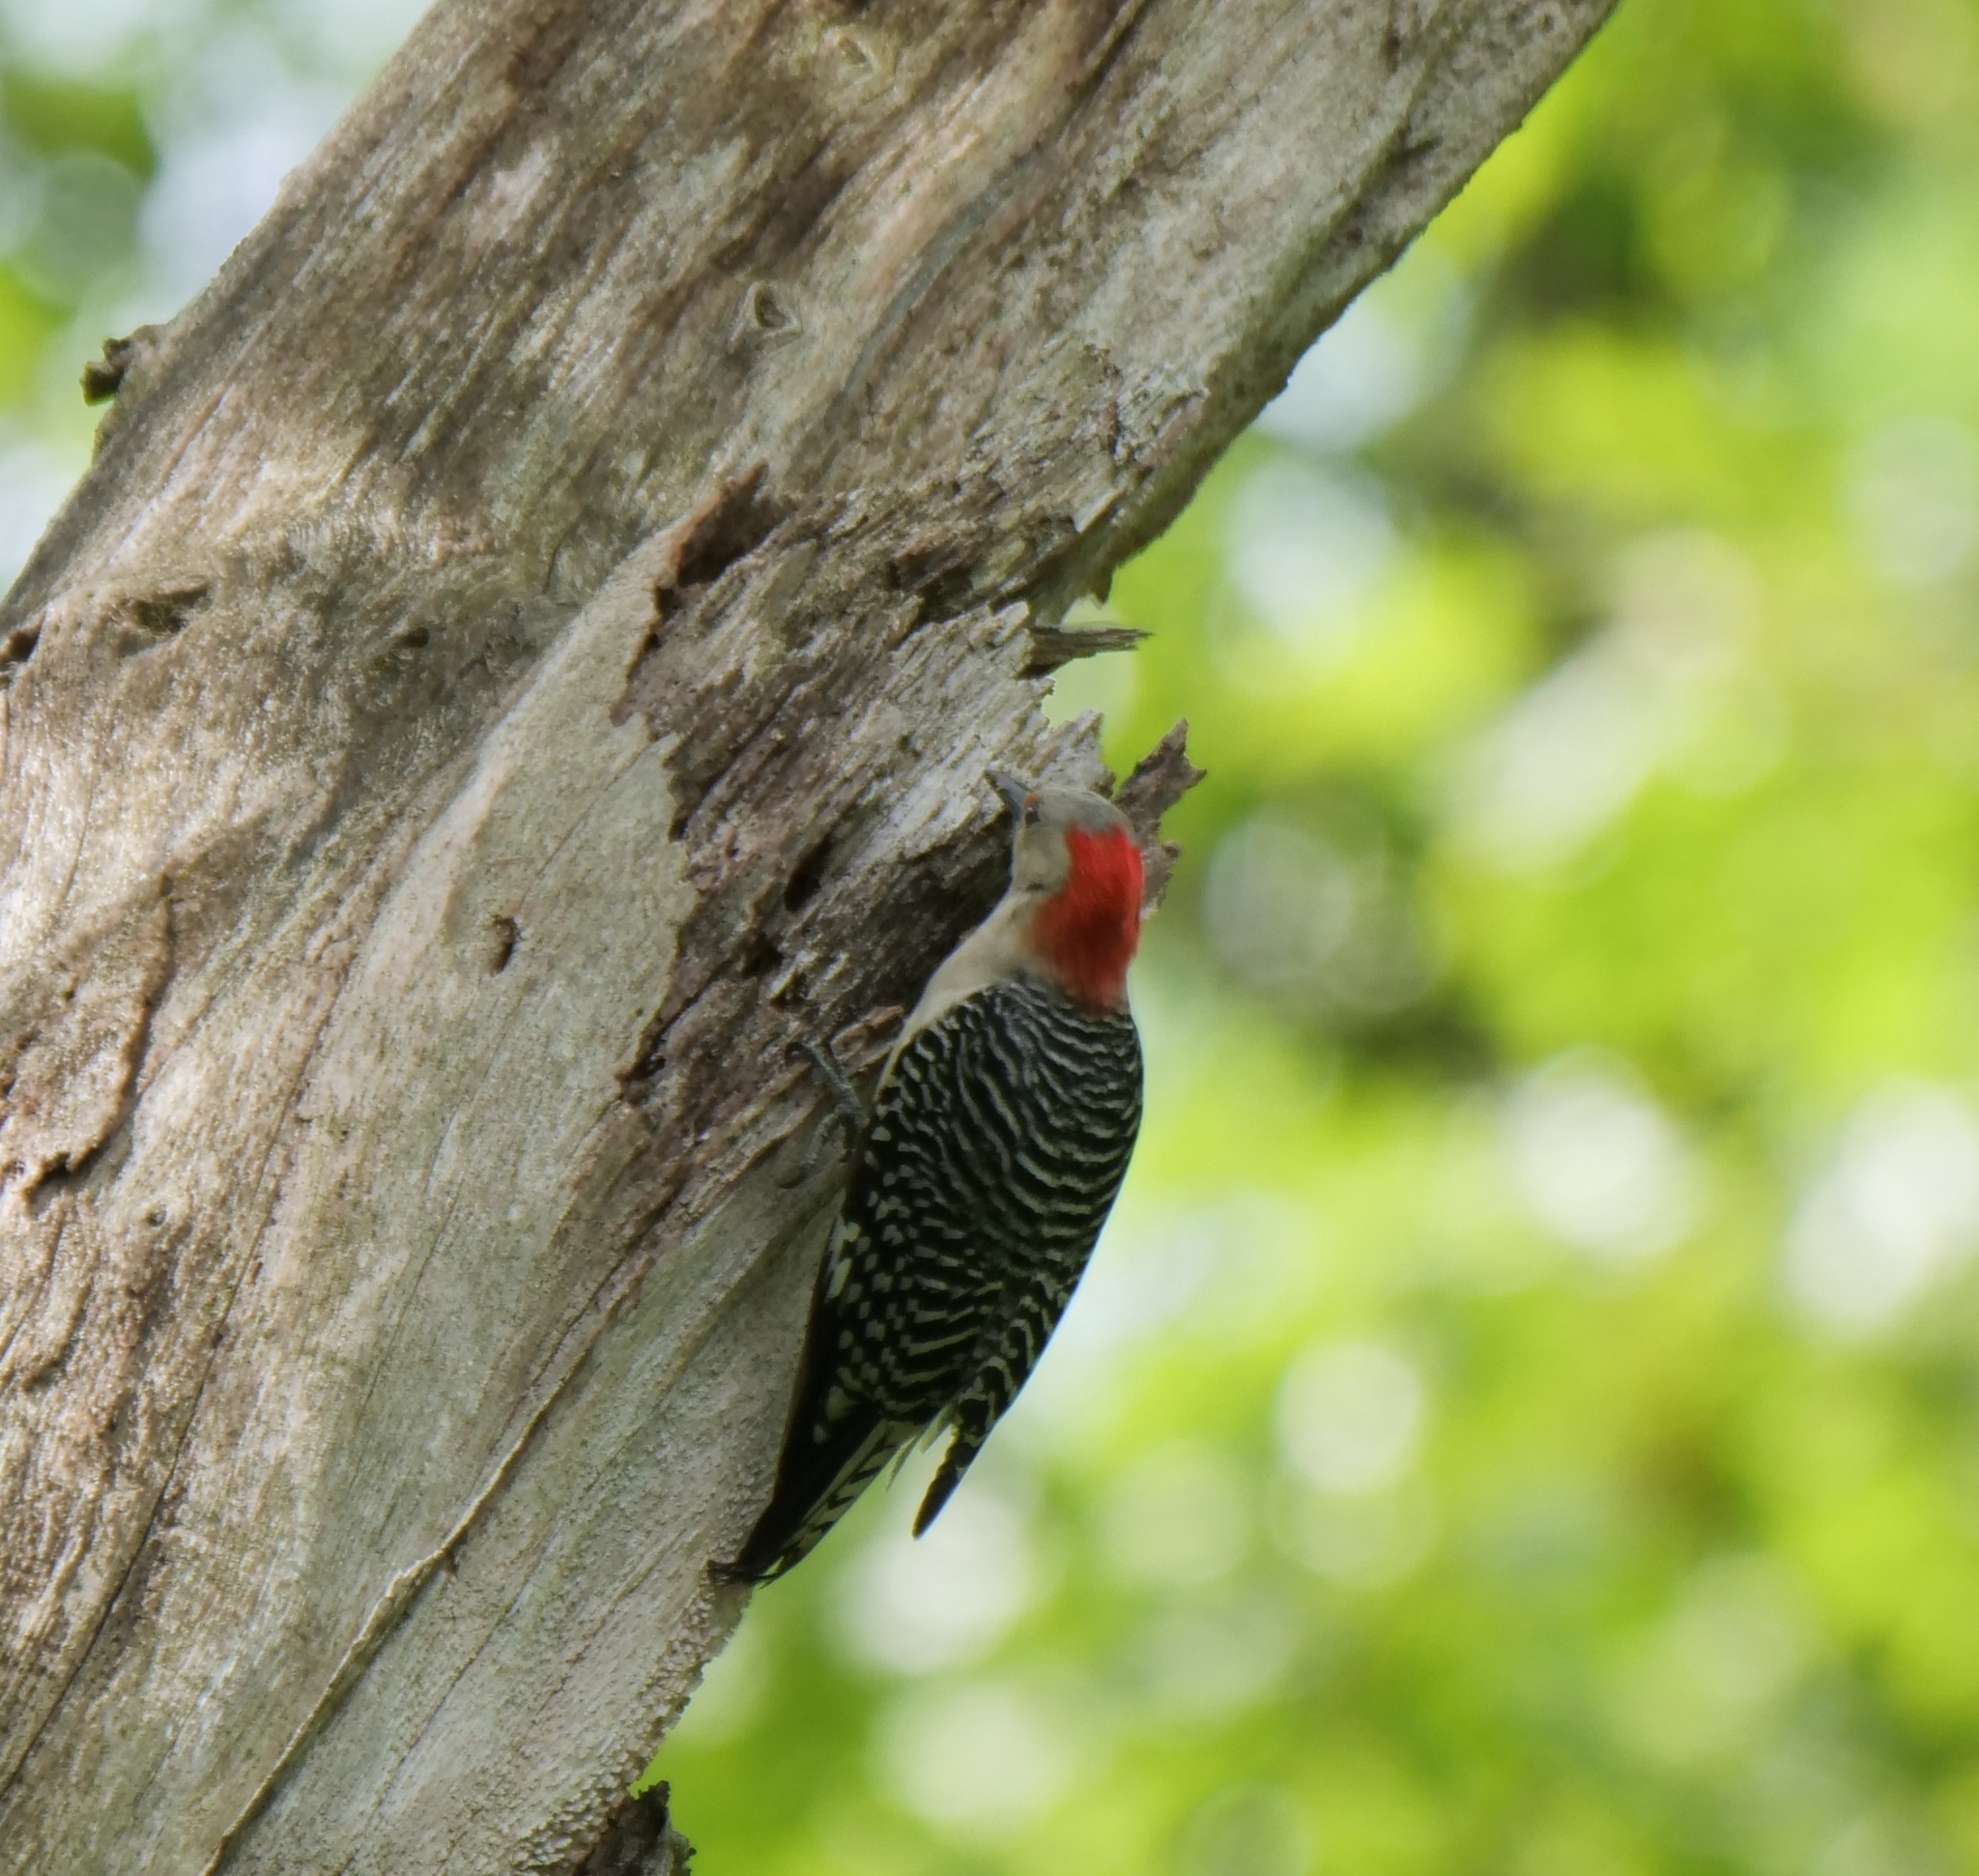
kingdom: Animalia
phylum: Chordata
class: Aves
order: Piciformes
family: Picidae
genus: Melanerpes
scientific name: Melanerpes carolinus
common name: Red-bellied woodpecker
